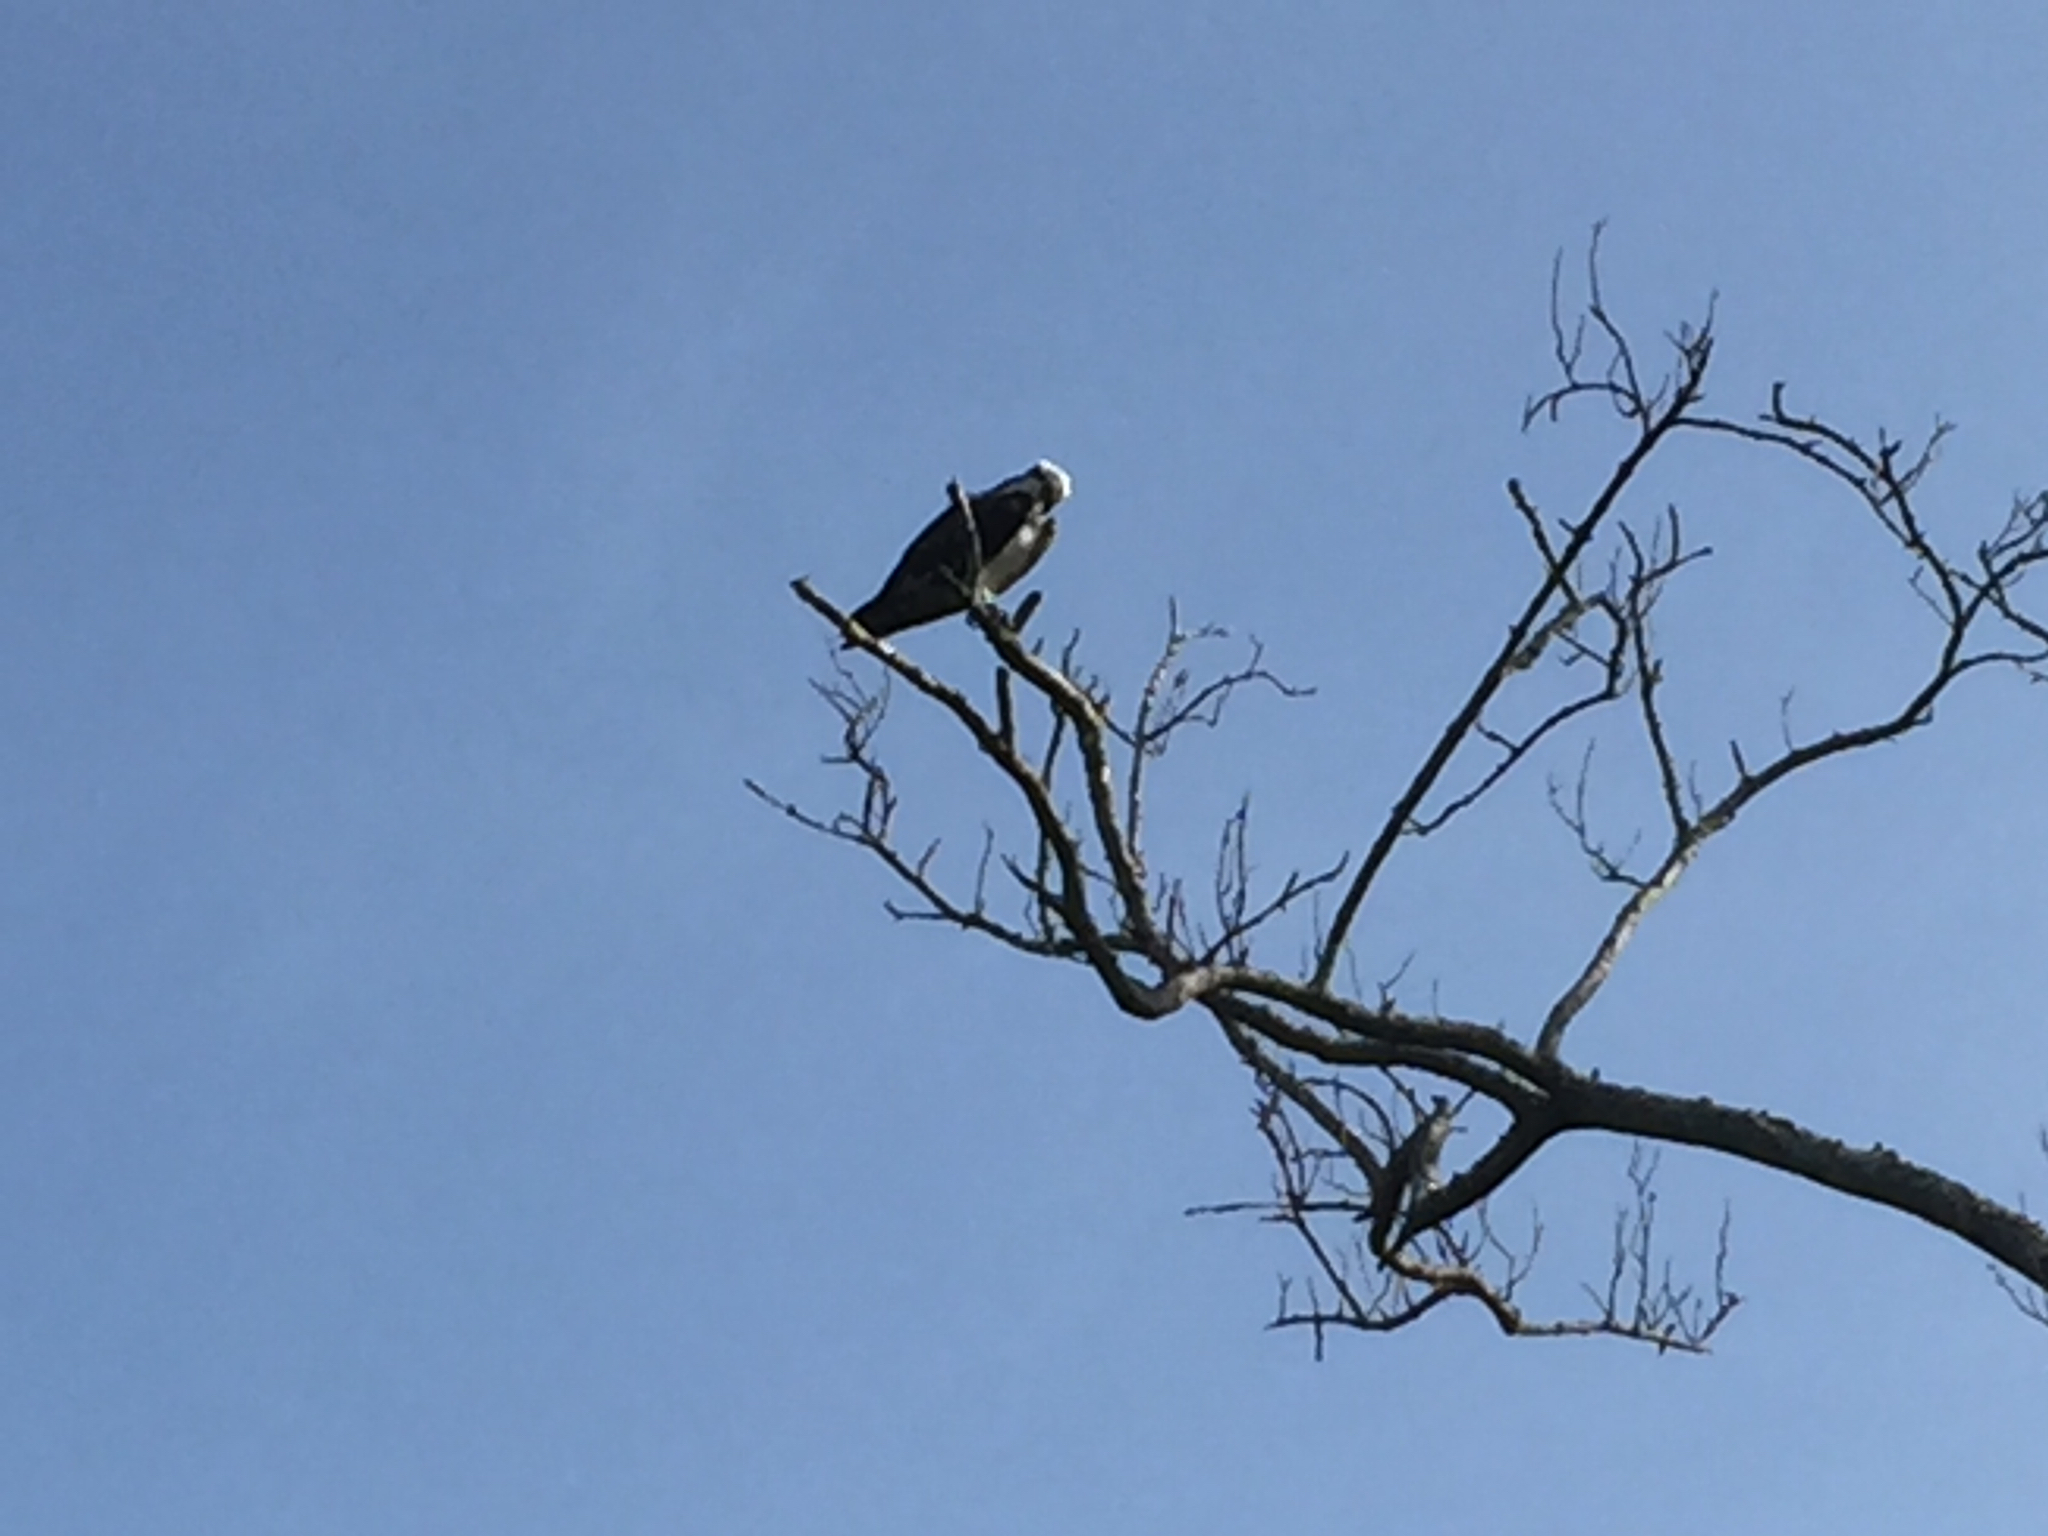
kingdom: Animalia
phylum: Chordata
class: Aves
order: Accipitriformes
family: Pandionidae
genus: Pandion
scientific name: Pandion haliaetus
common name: Osprey
